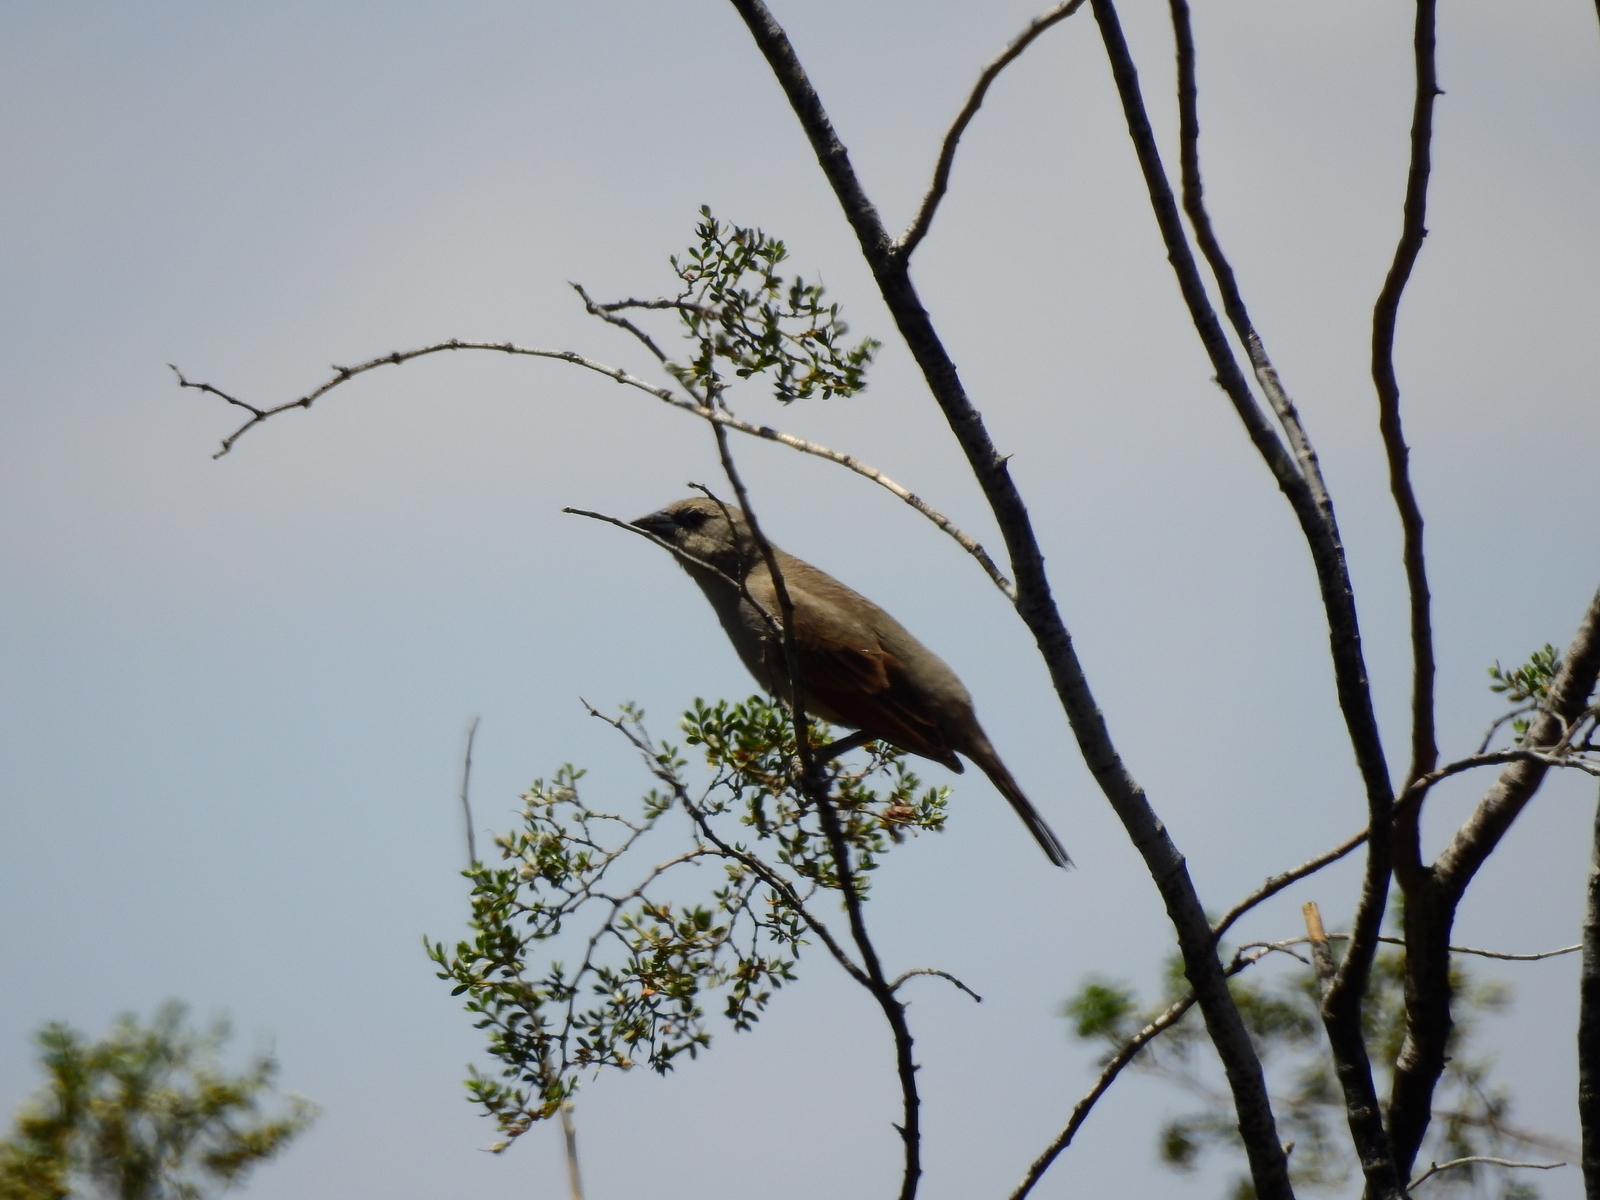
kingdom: Animalia
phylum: Chordata
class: Aves
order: Passeriformes
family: Icteridae
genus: Agelaioides
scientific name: Agelaioides badius
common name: Baywing
